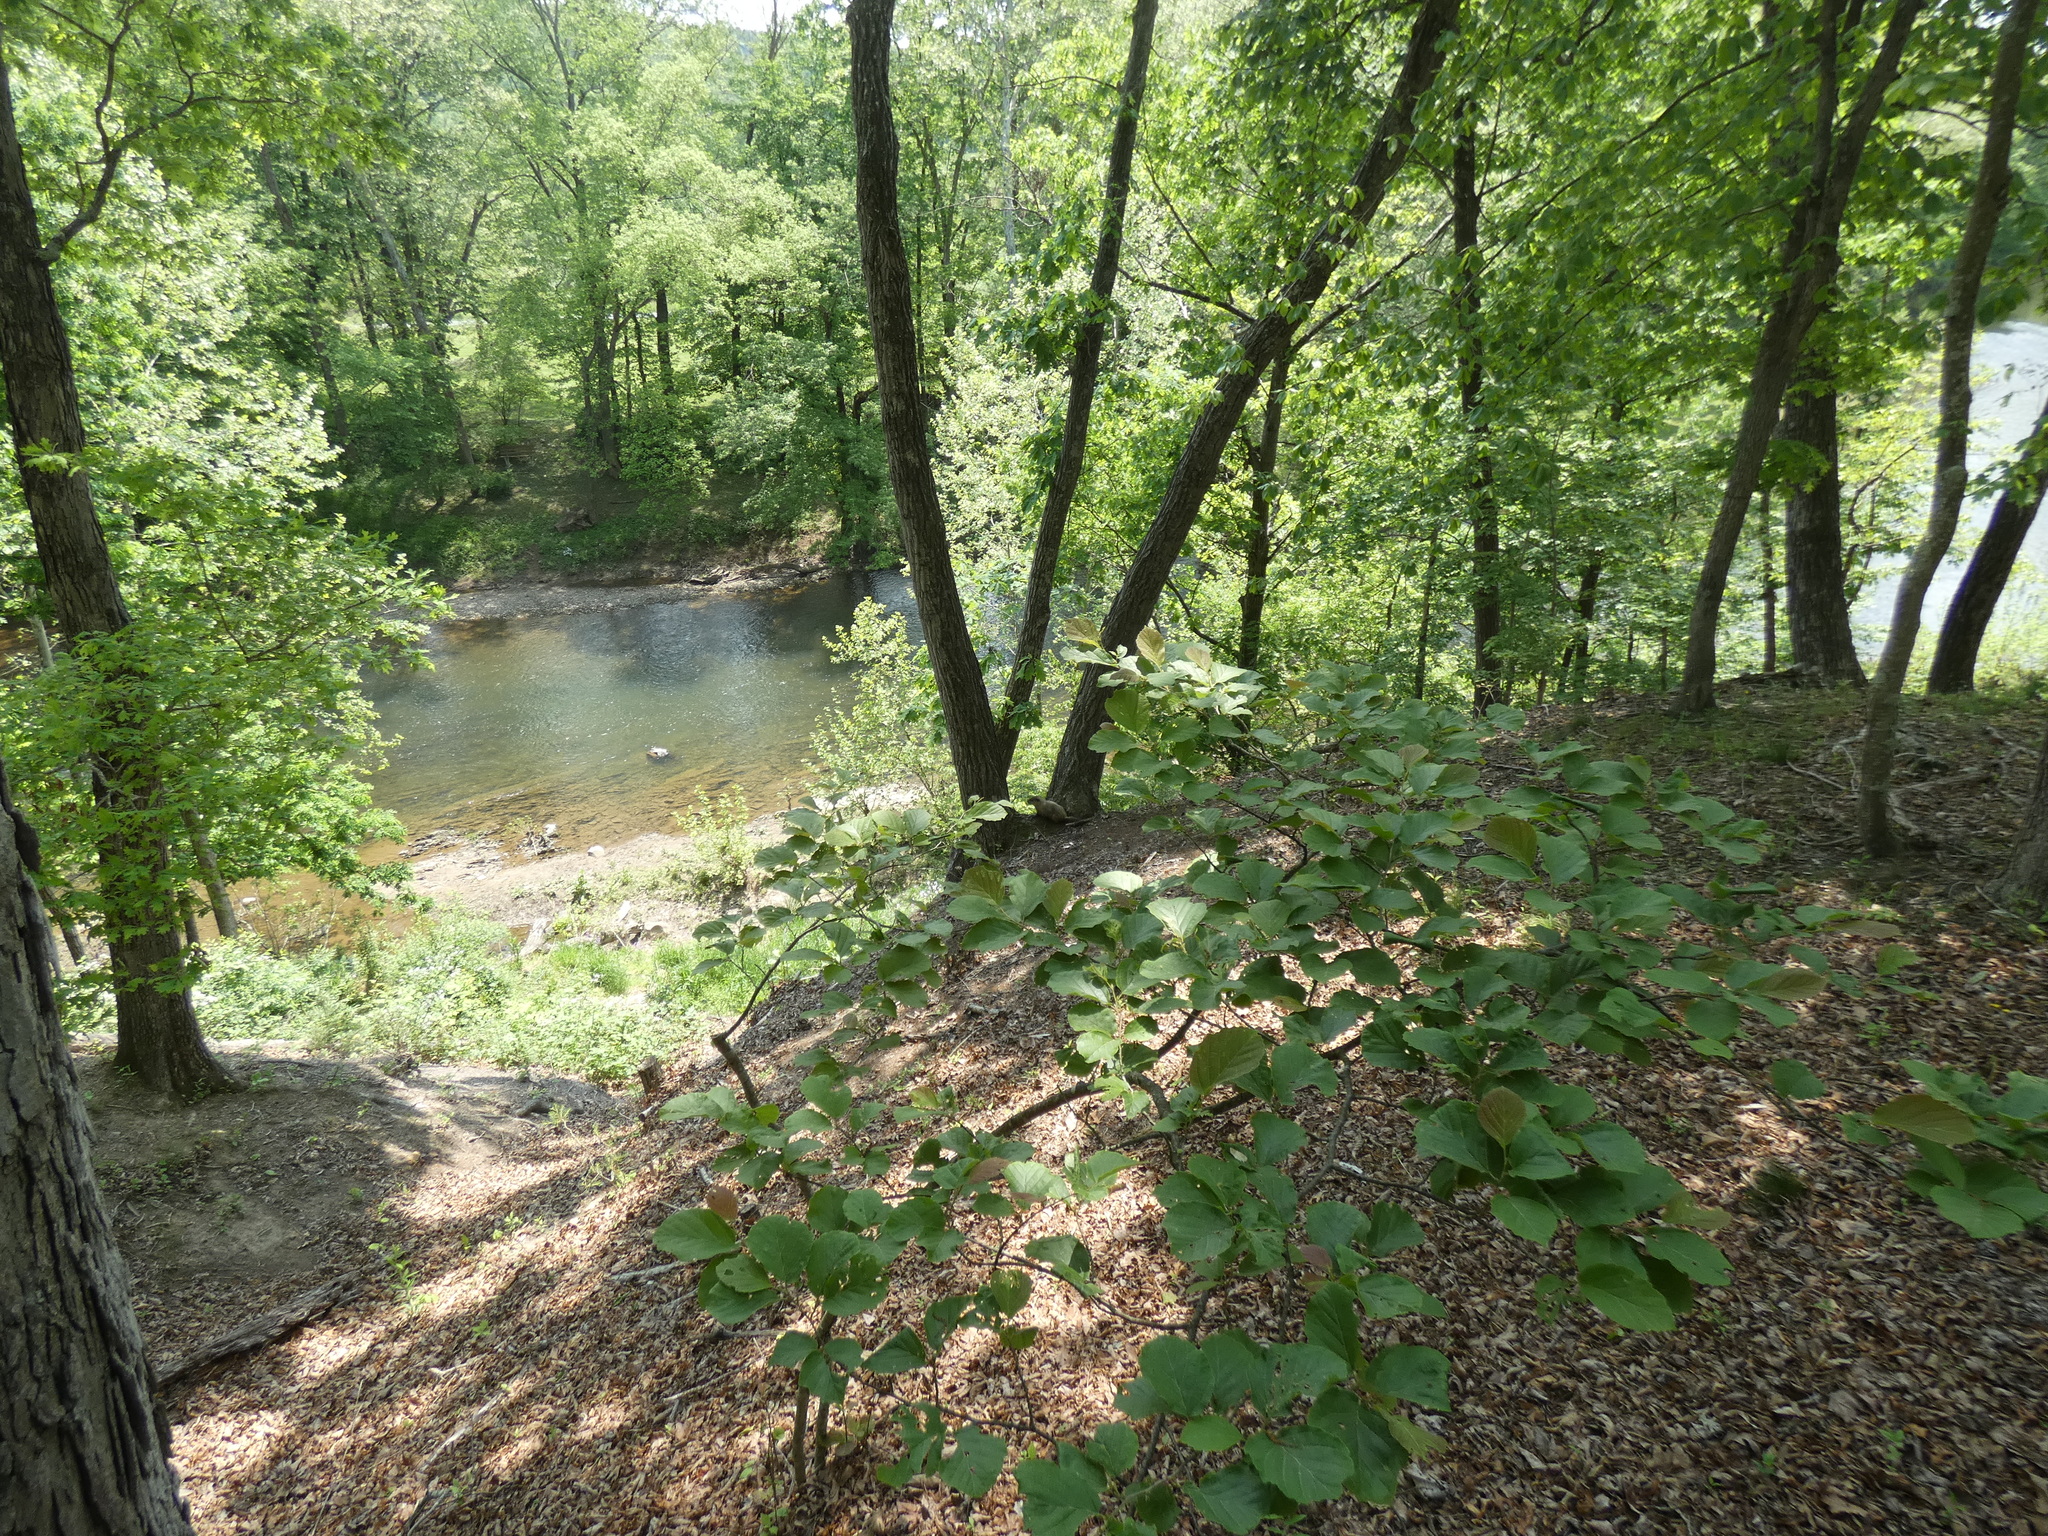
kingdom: Animalia
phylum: Chordata
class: Mammalia
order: Rodentia
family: Sciuridae
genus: Marmota
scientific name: Marmota monax
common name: Groundhog
